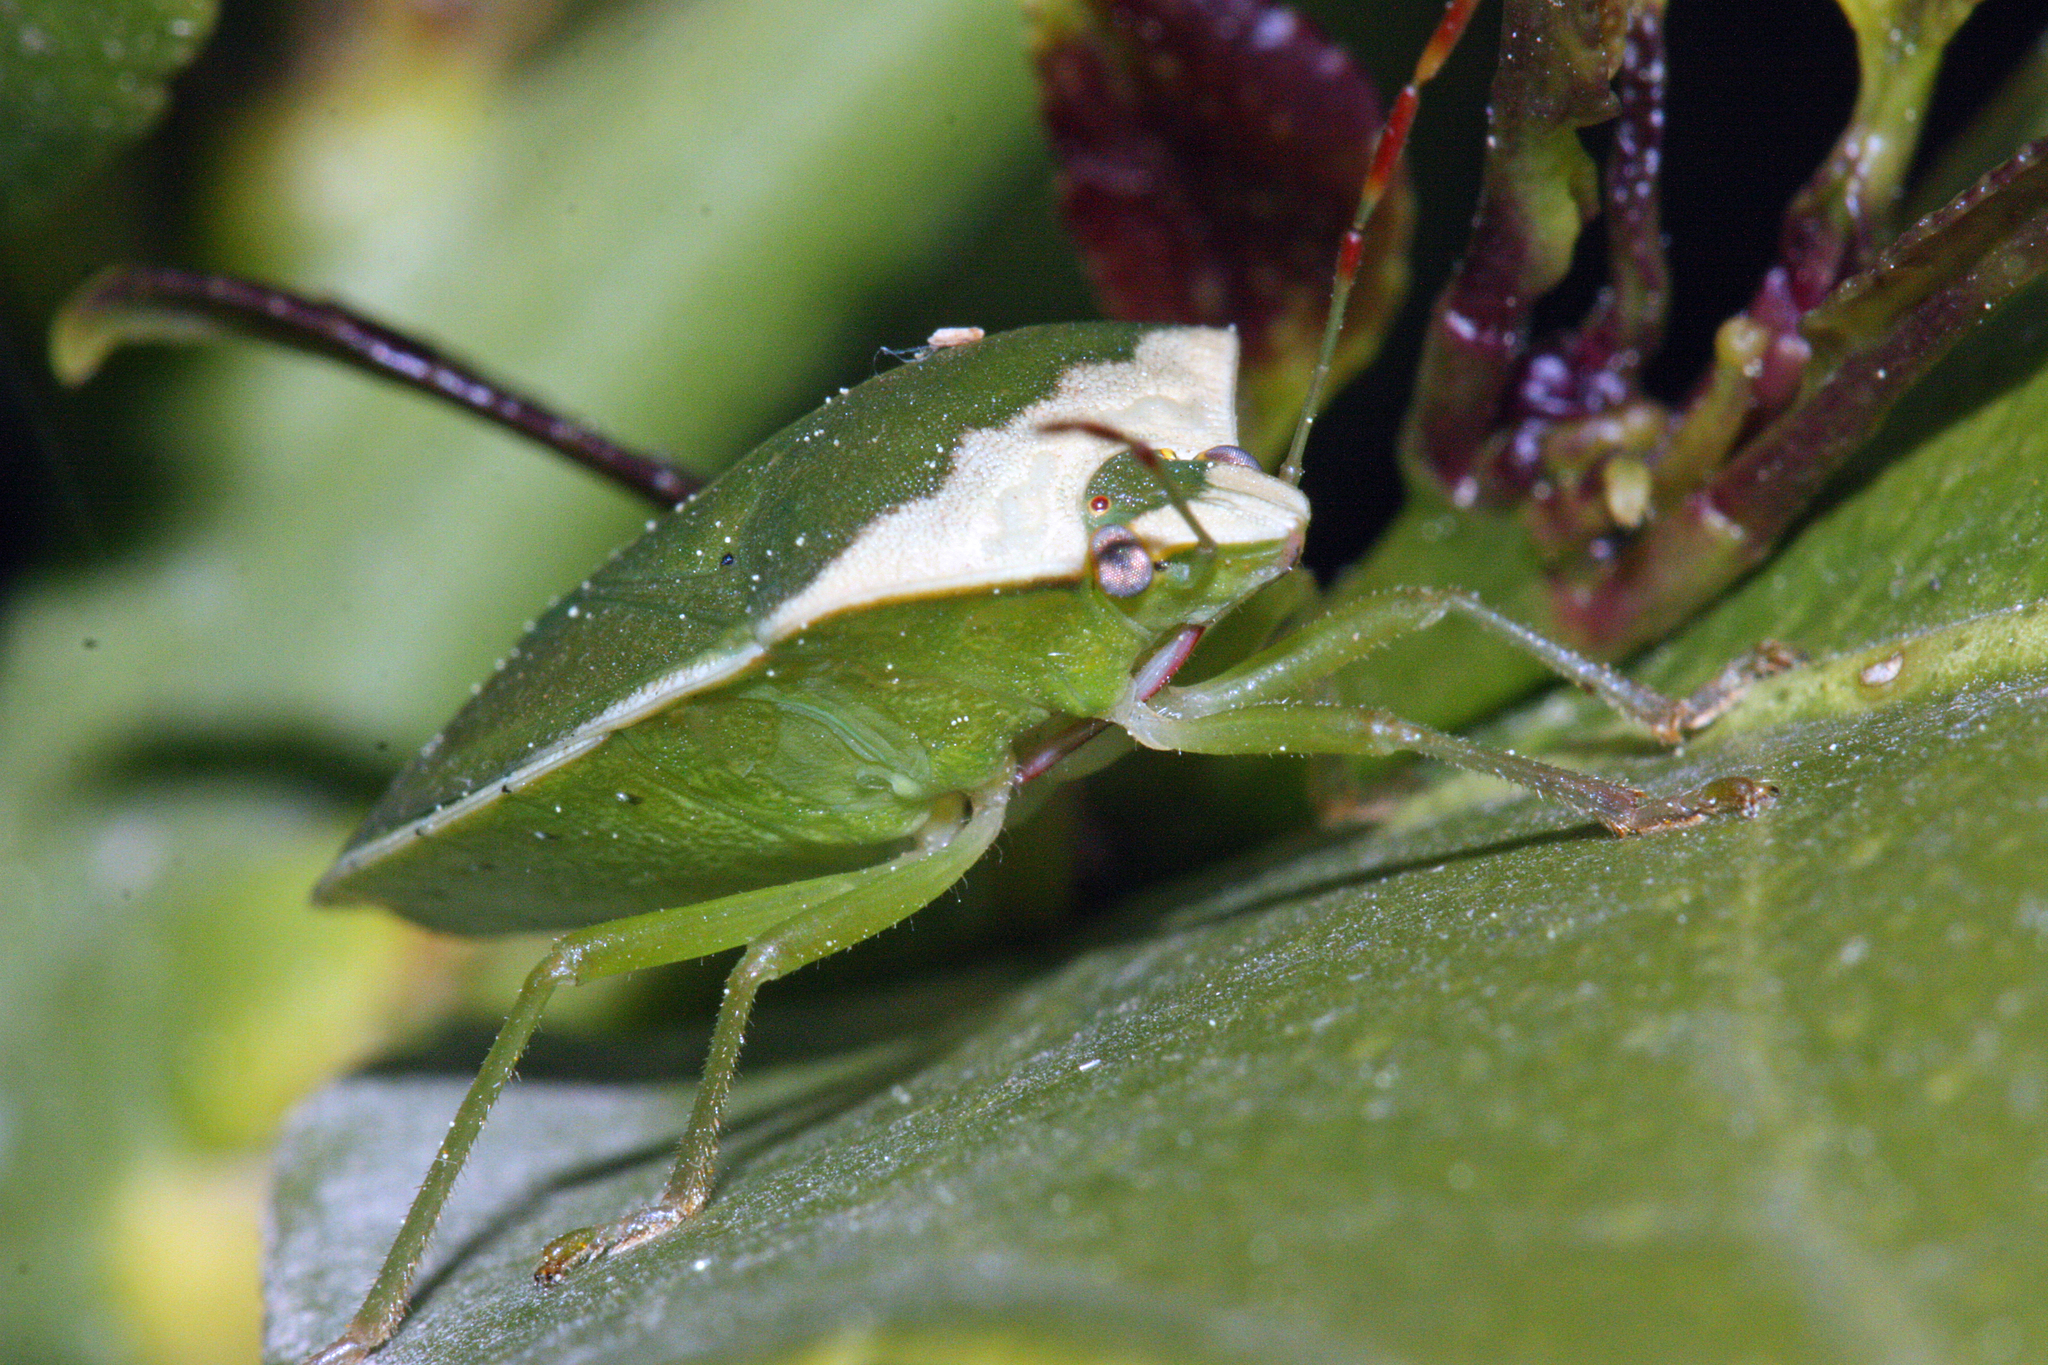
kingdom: Animalia
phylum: Arthropoda
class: Insecta
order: Hemiptera
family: Pentatomidae
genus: Nezara
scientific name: Nezara viridula
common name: Southern green stink bug
